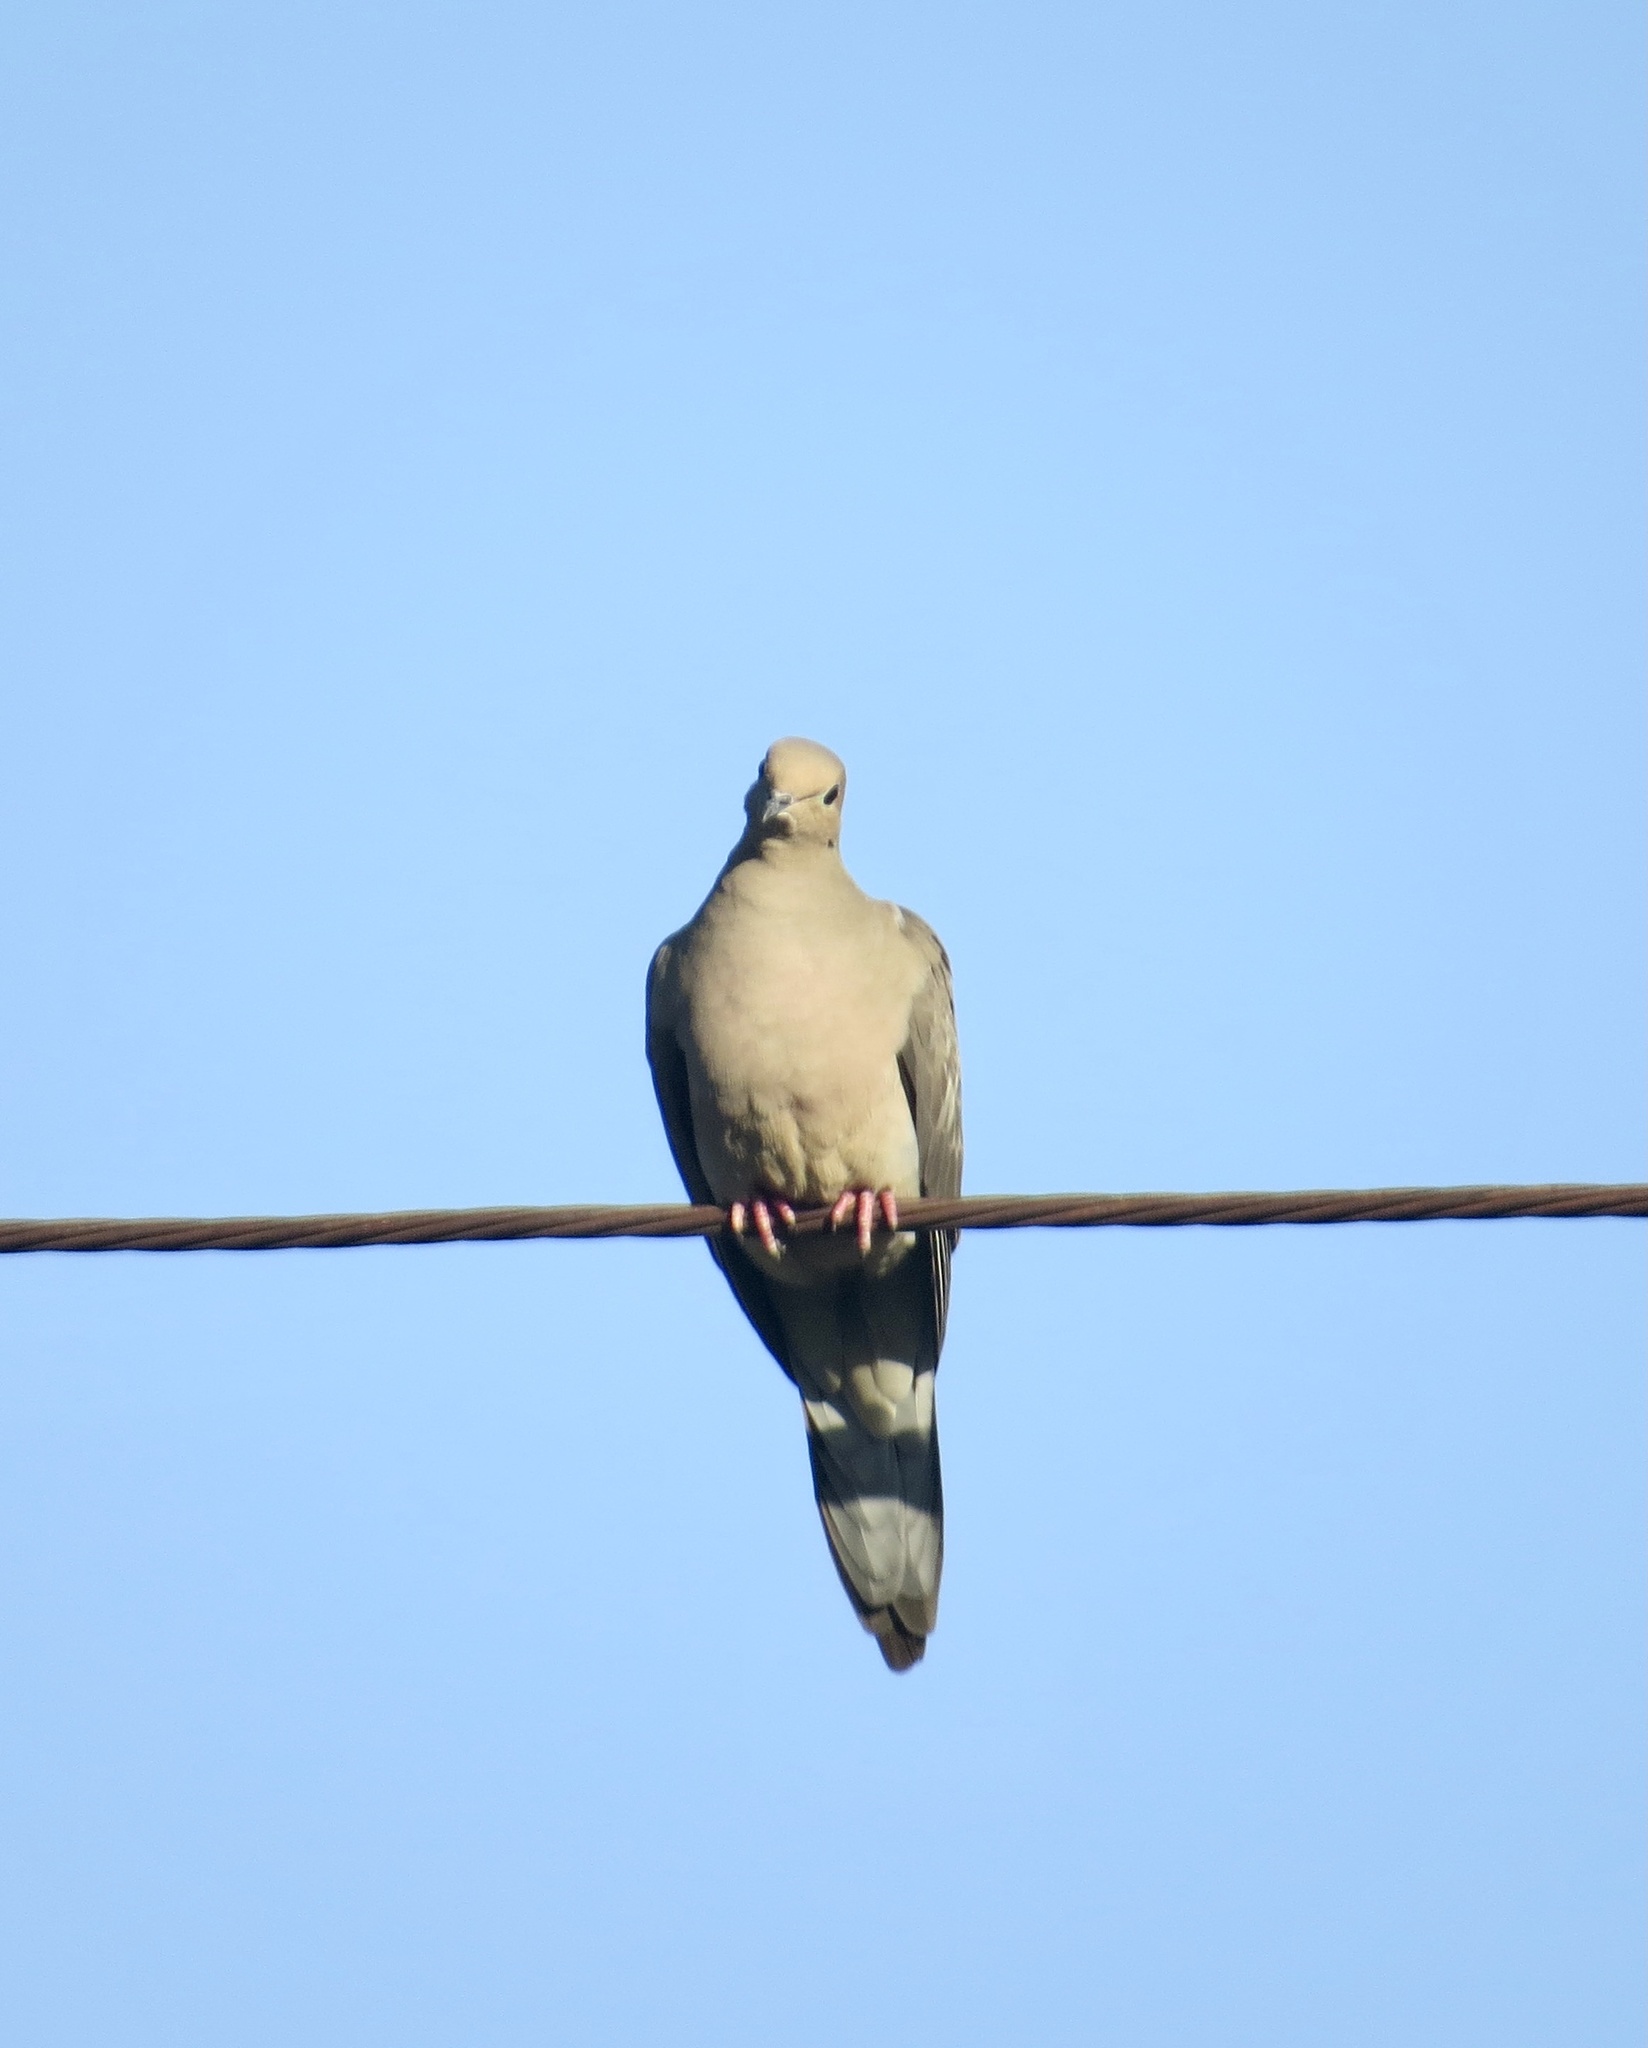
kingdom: Animalia
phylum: Chordata
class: Aves
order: Columbiformes
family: Columbidae
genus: Zenaida
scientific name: Zenaida macroura
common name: Mourning dove
